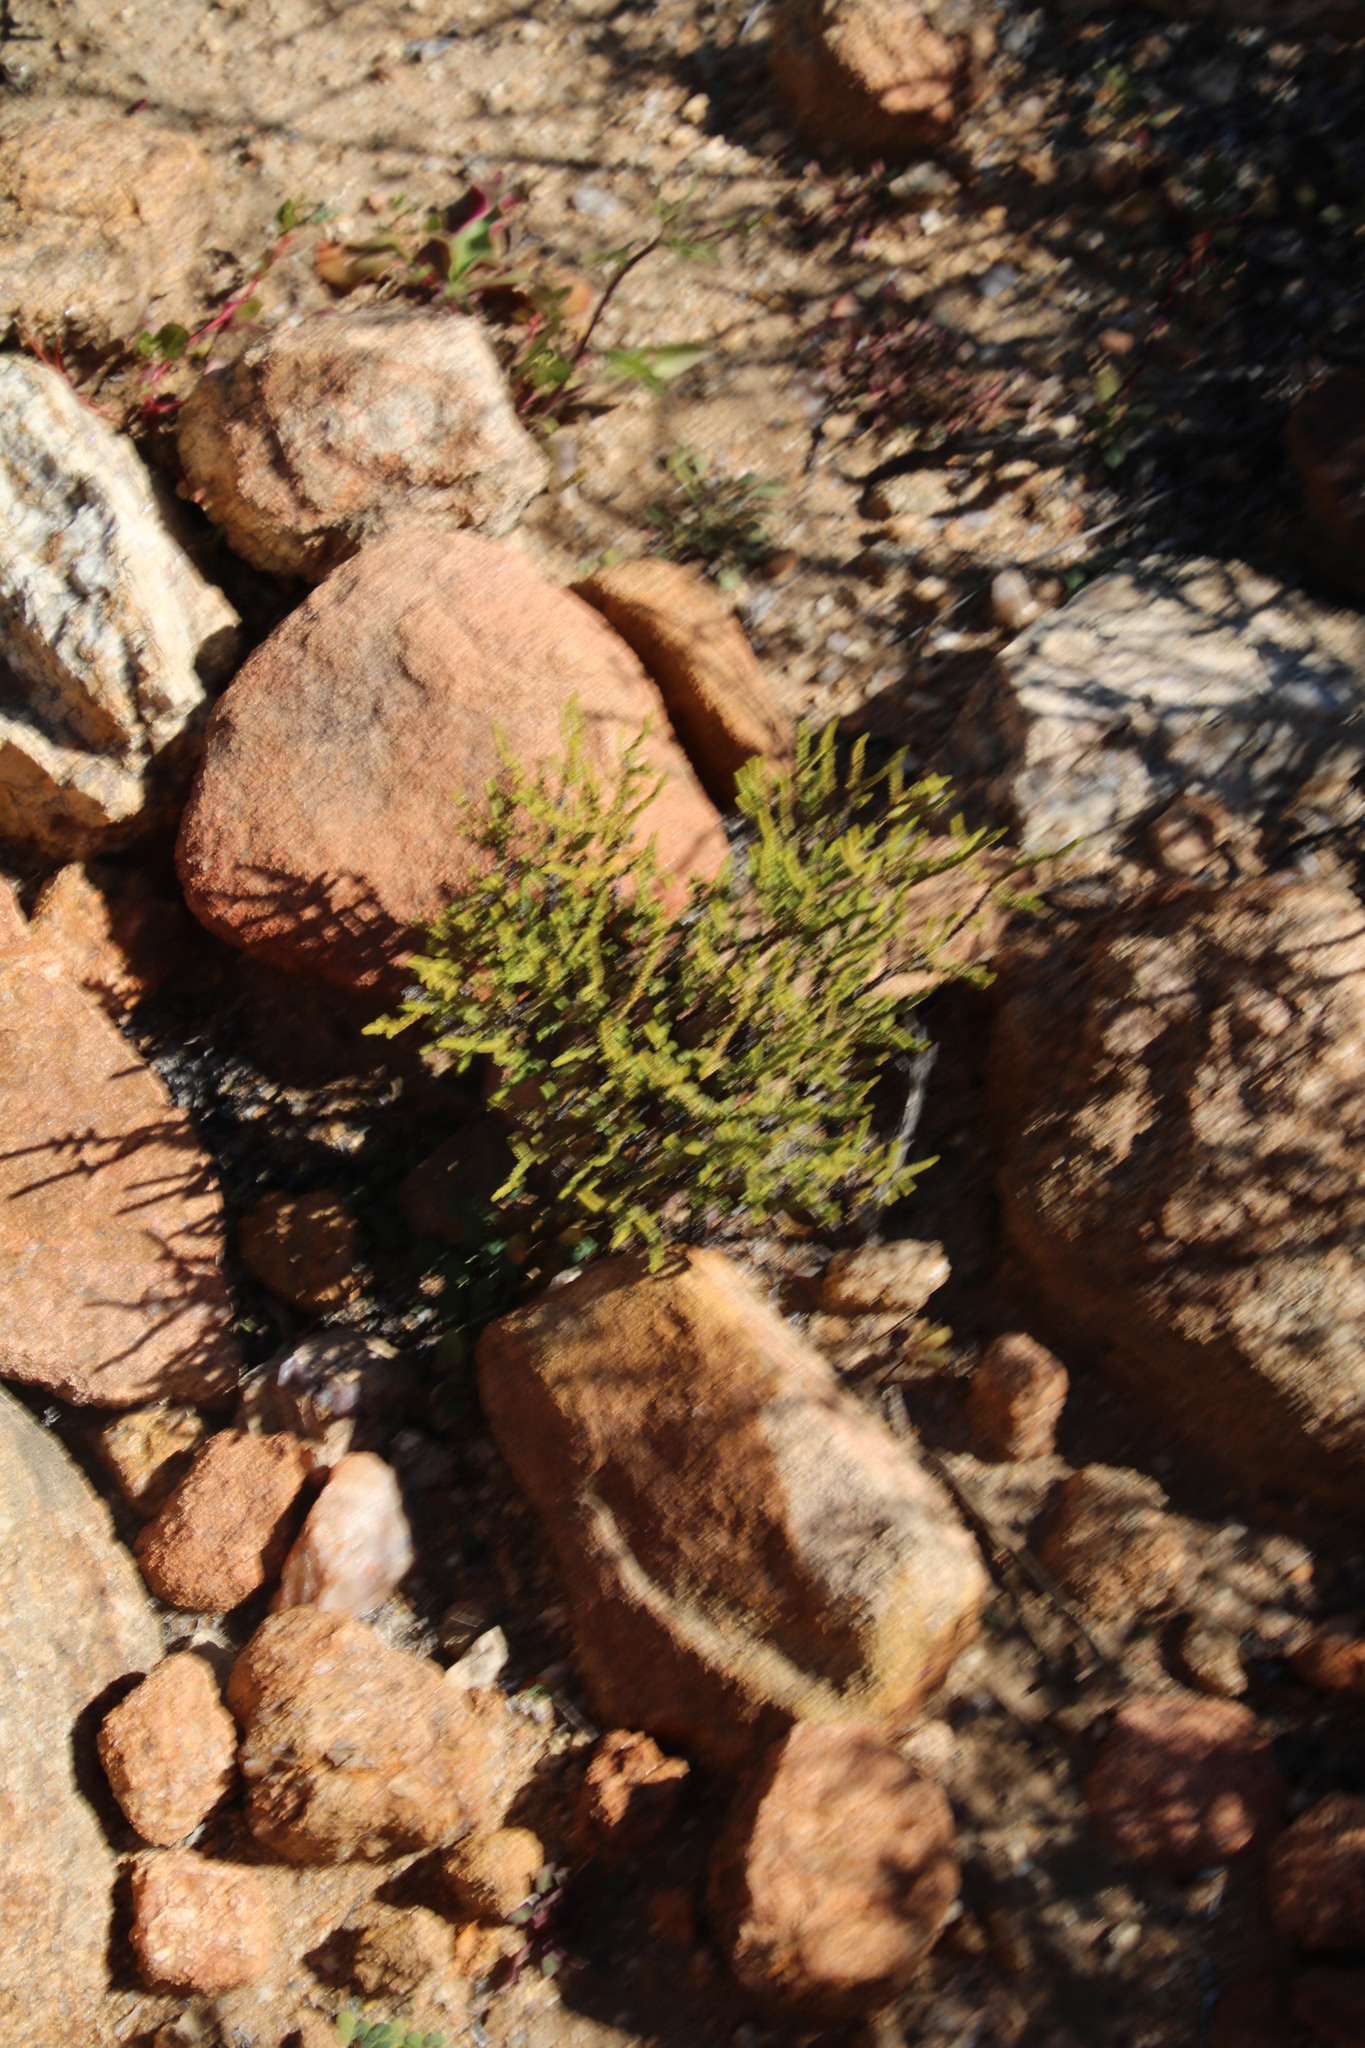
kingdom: Plantae
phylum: Tracheophyta
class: Magnoliopsida
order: Saxifragales
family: Crassulaceae
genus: Crassula
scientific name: Crassula muscosa
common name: Toy-cypress
